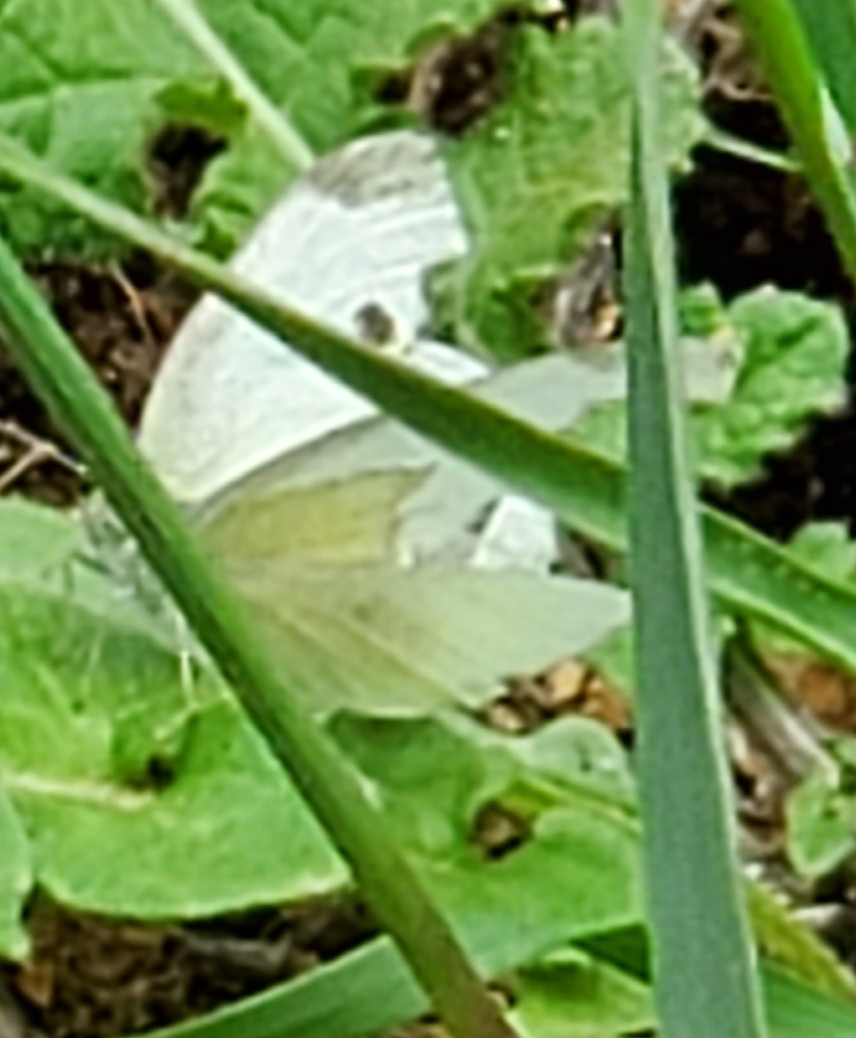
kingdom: Animalia
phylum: Arthropoda
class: Insecta
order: Lepidoptera
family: Pieridae
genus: Pieris
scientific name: Pieris rapae
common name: Small white
